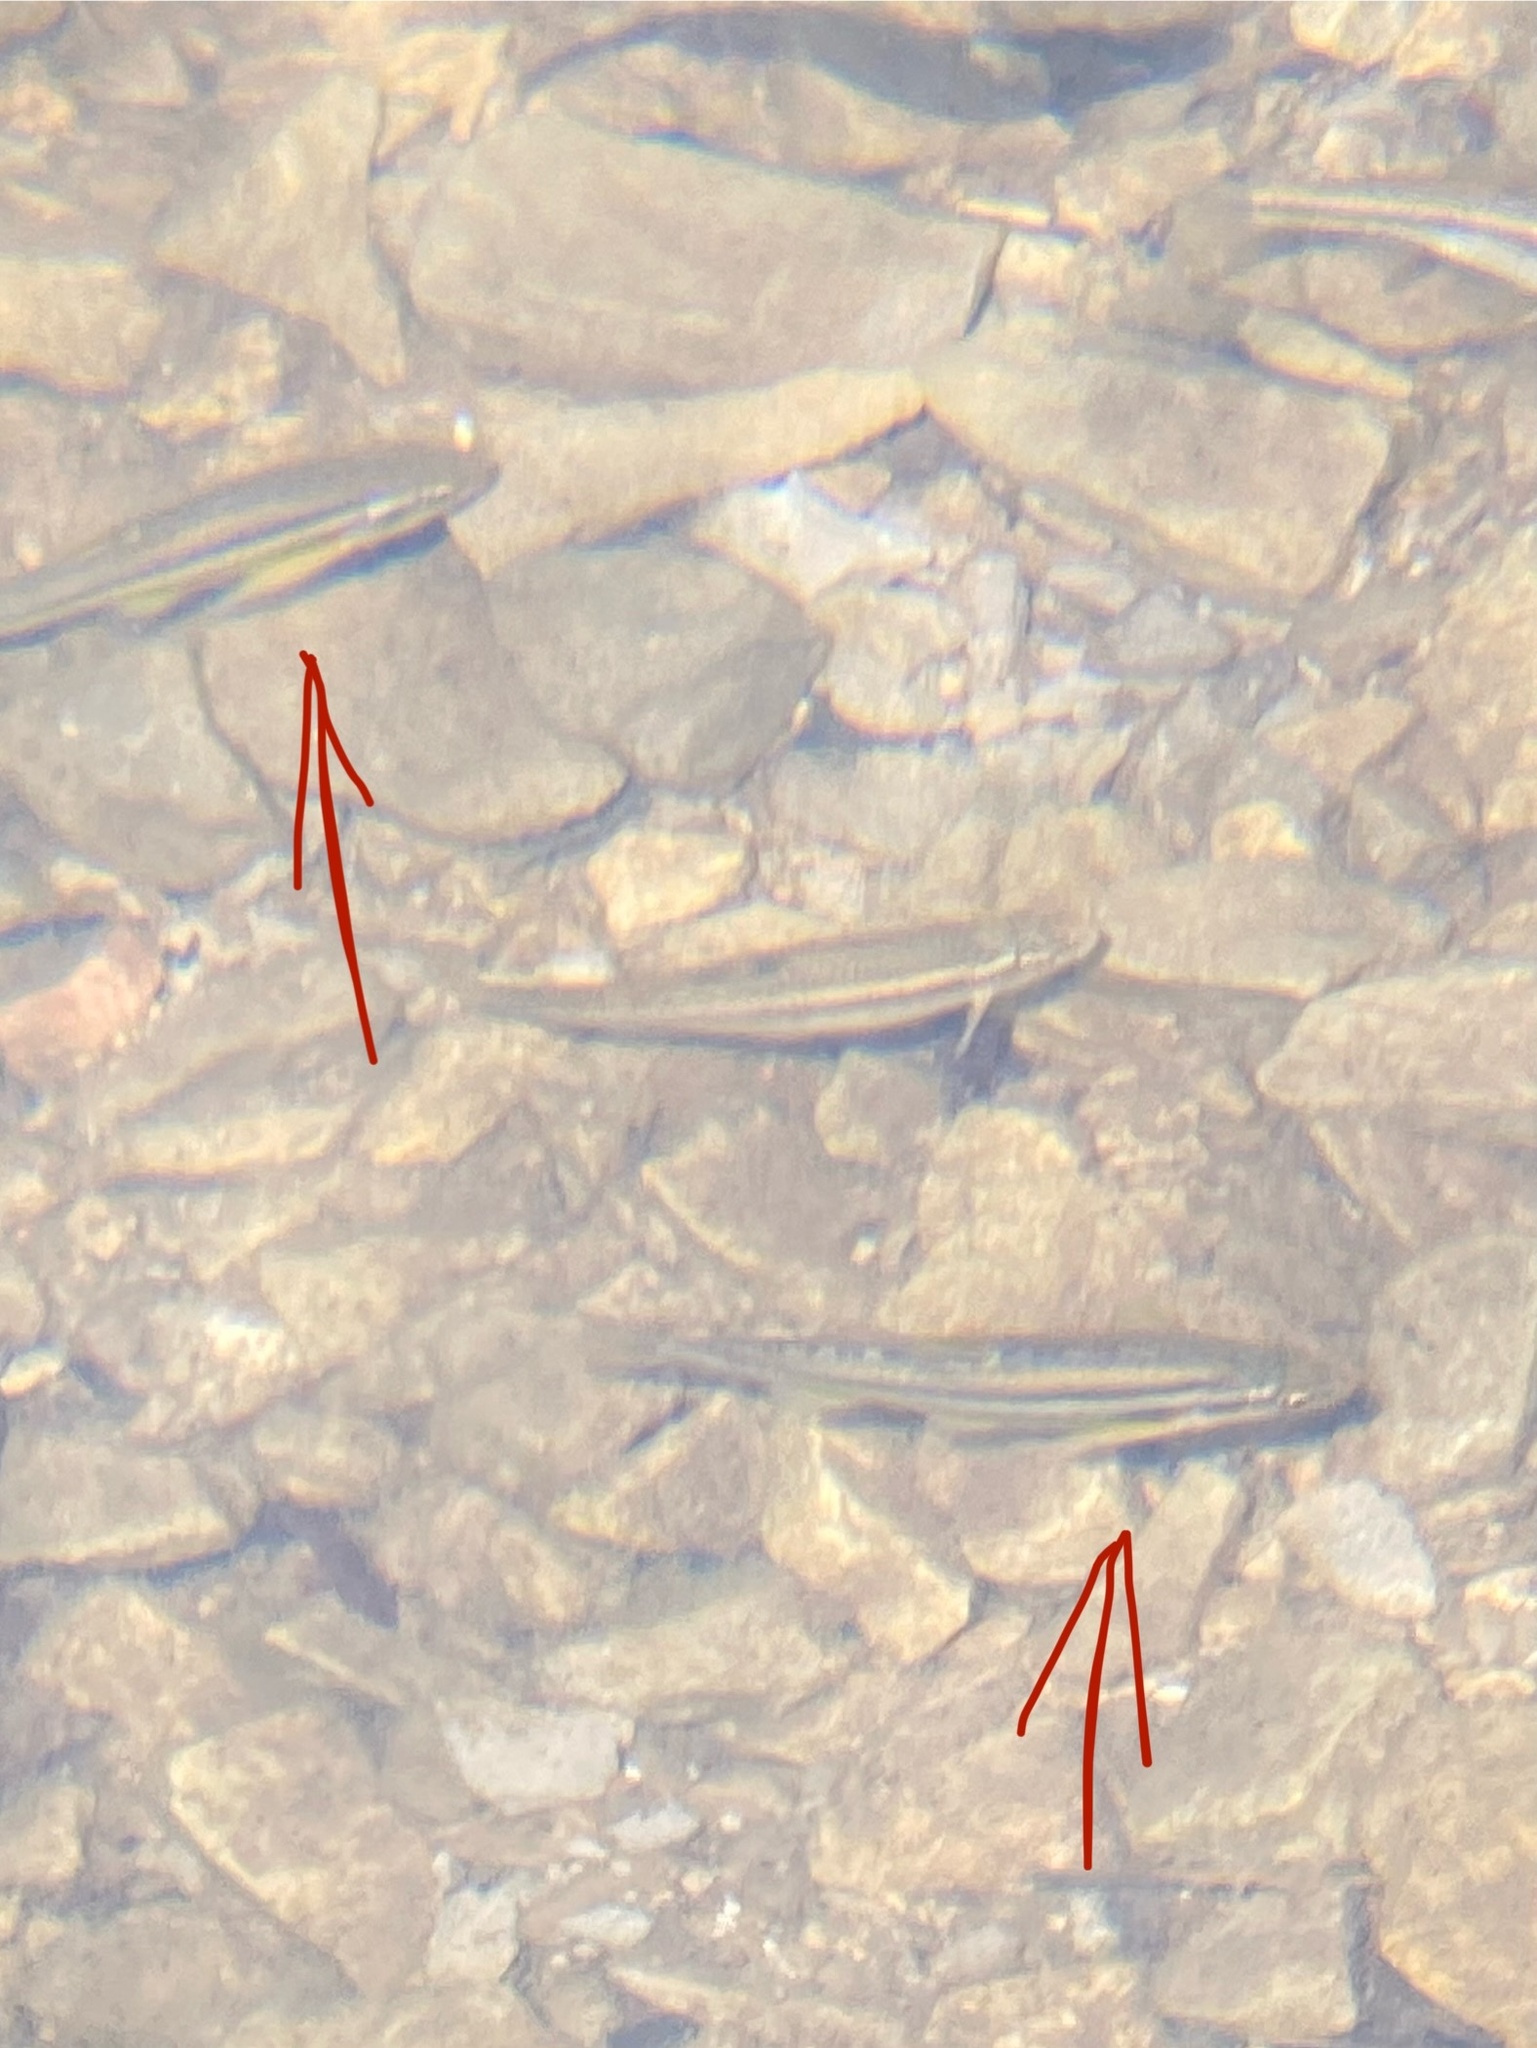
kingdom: Animalia
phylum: Chordata
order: Cypriniformes
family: Cyprinidae
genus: Chrosomus
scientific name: Chrosomus erythrogaster
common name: Southern redbelly dace
